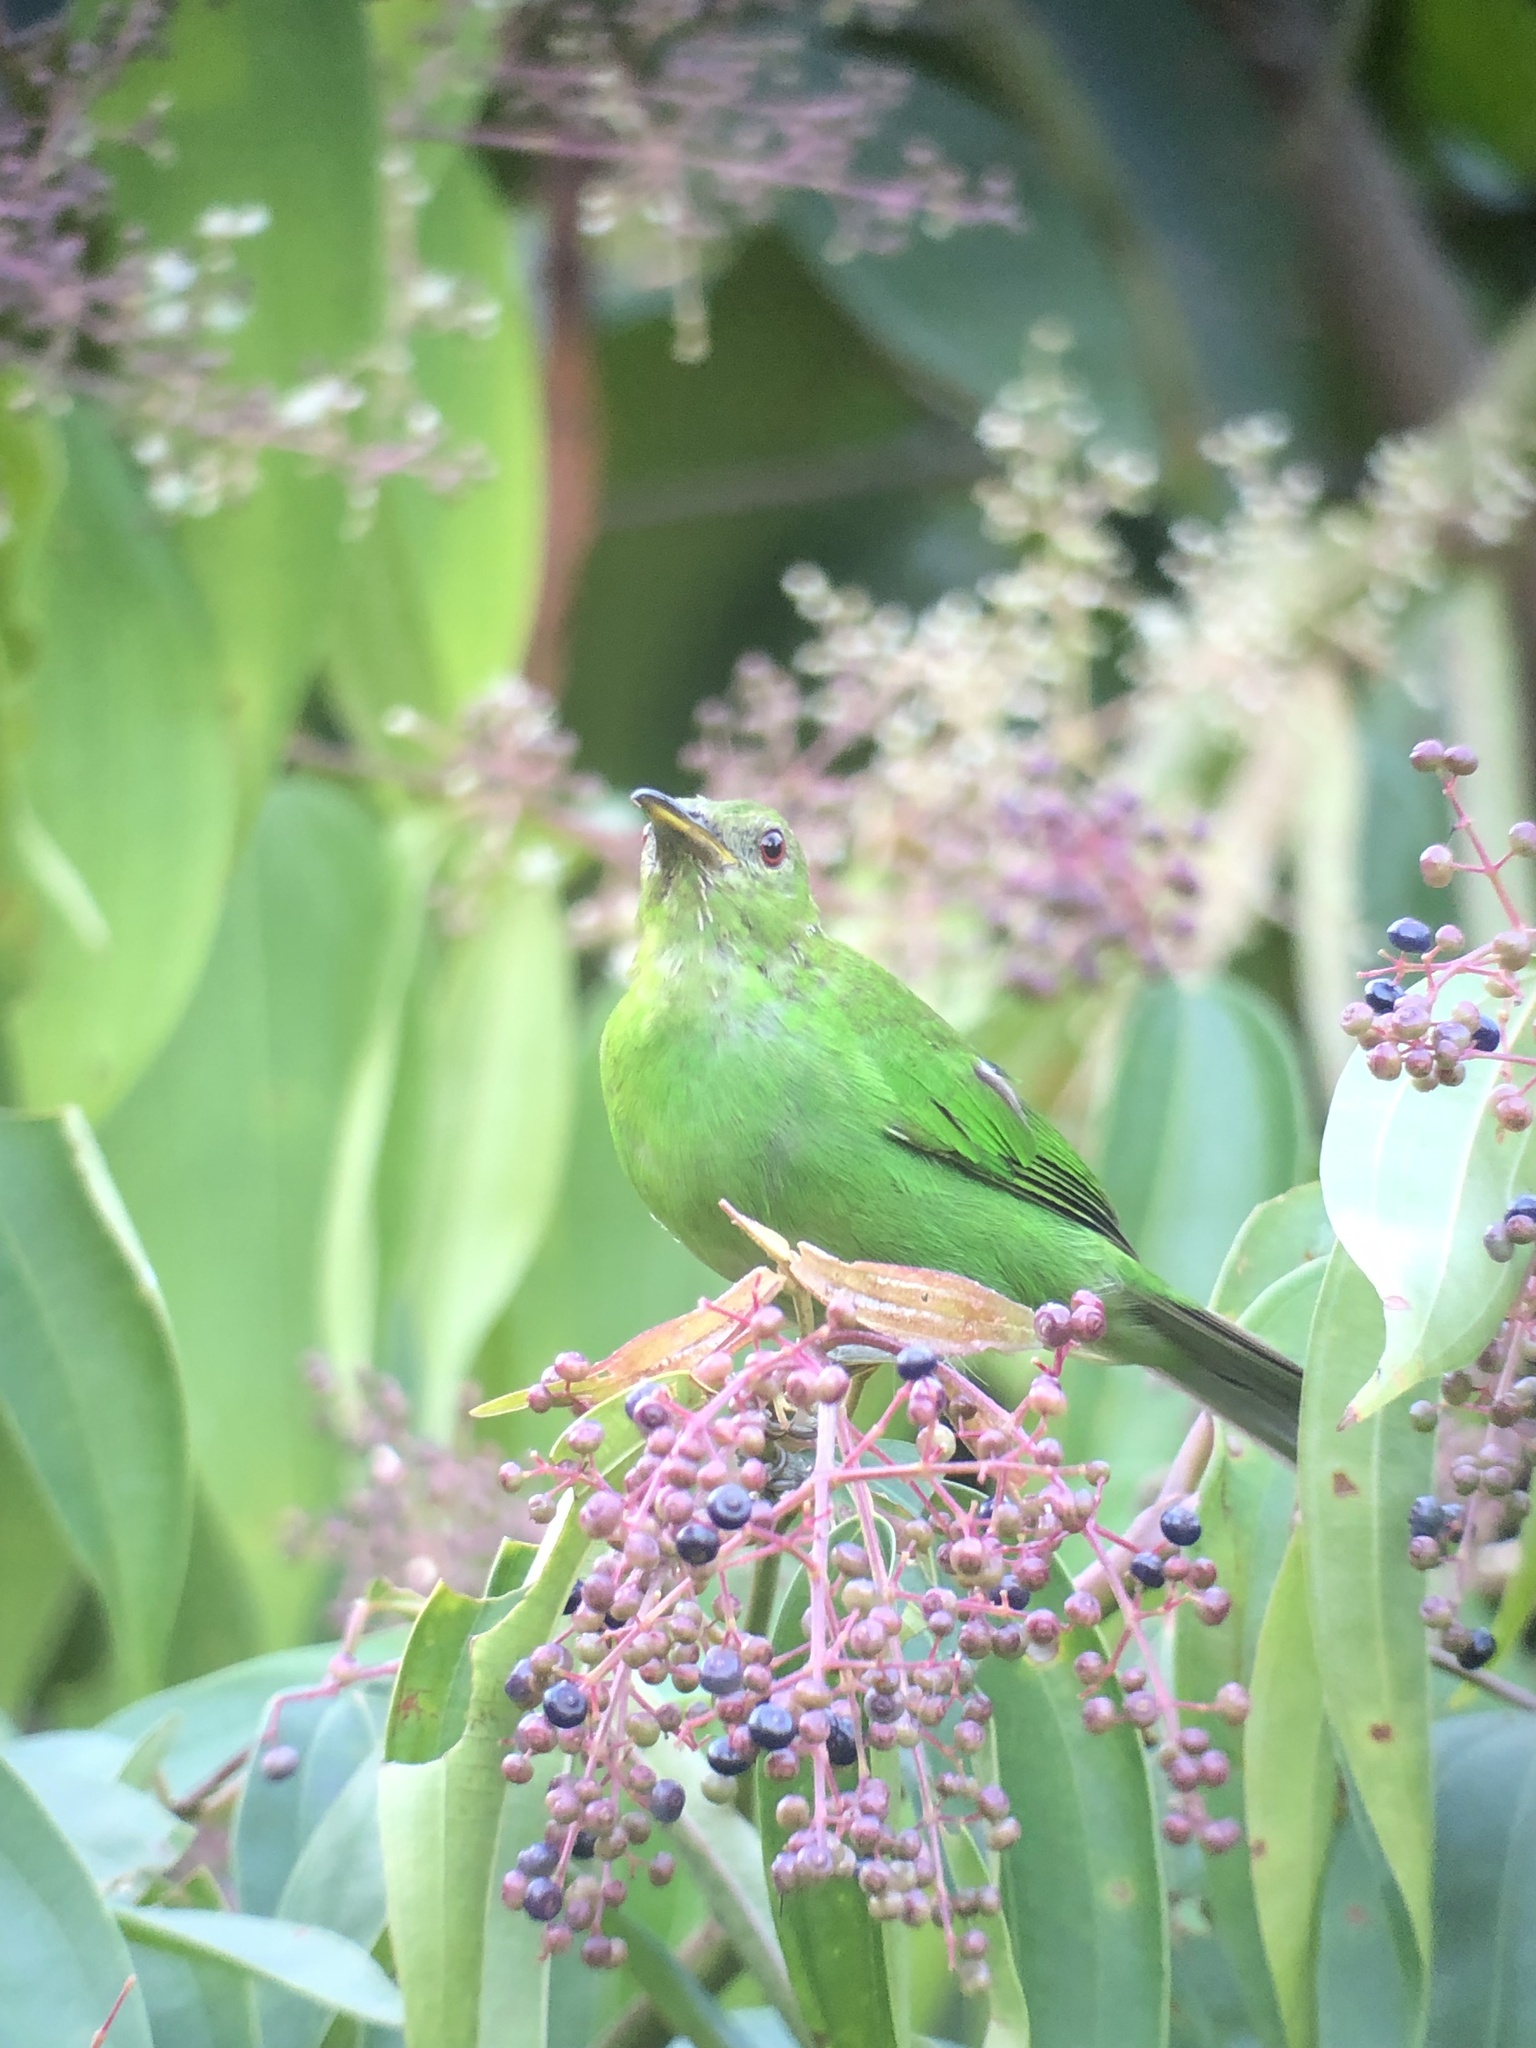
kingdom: Animalia
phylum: Chordata
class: Aves
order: Passeriformes
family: Thraupidae
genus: Chlorophanes
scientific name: Chlorophanes spiza
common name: Green honeycreeper
